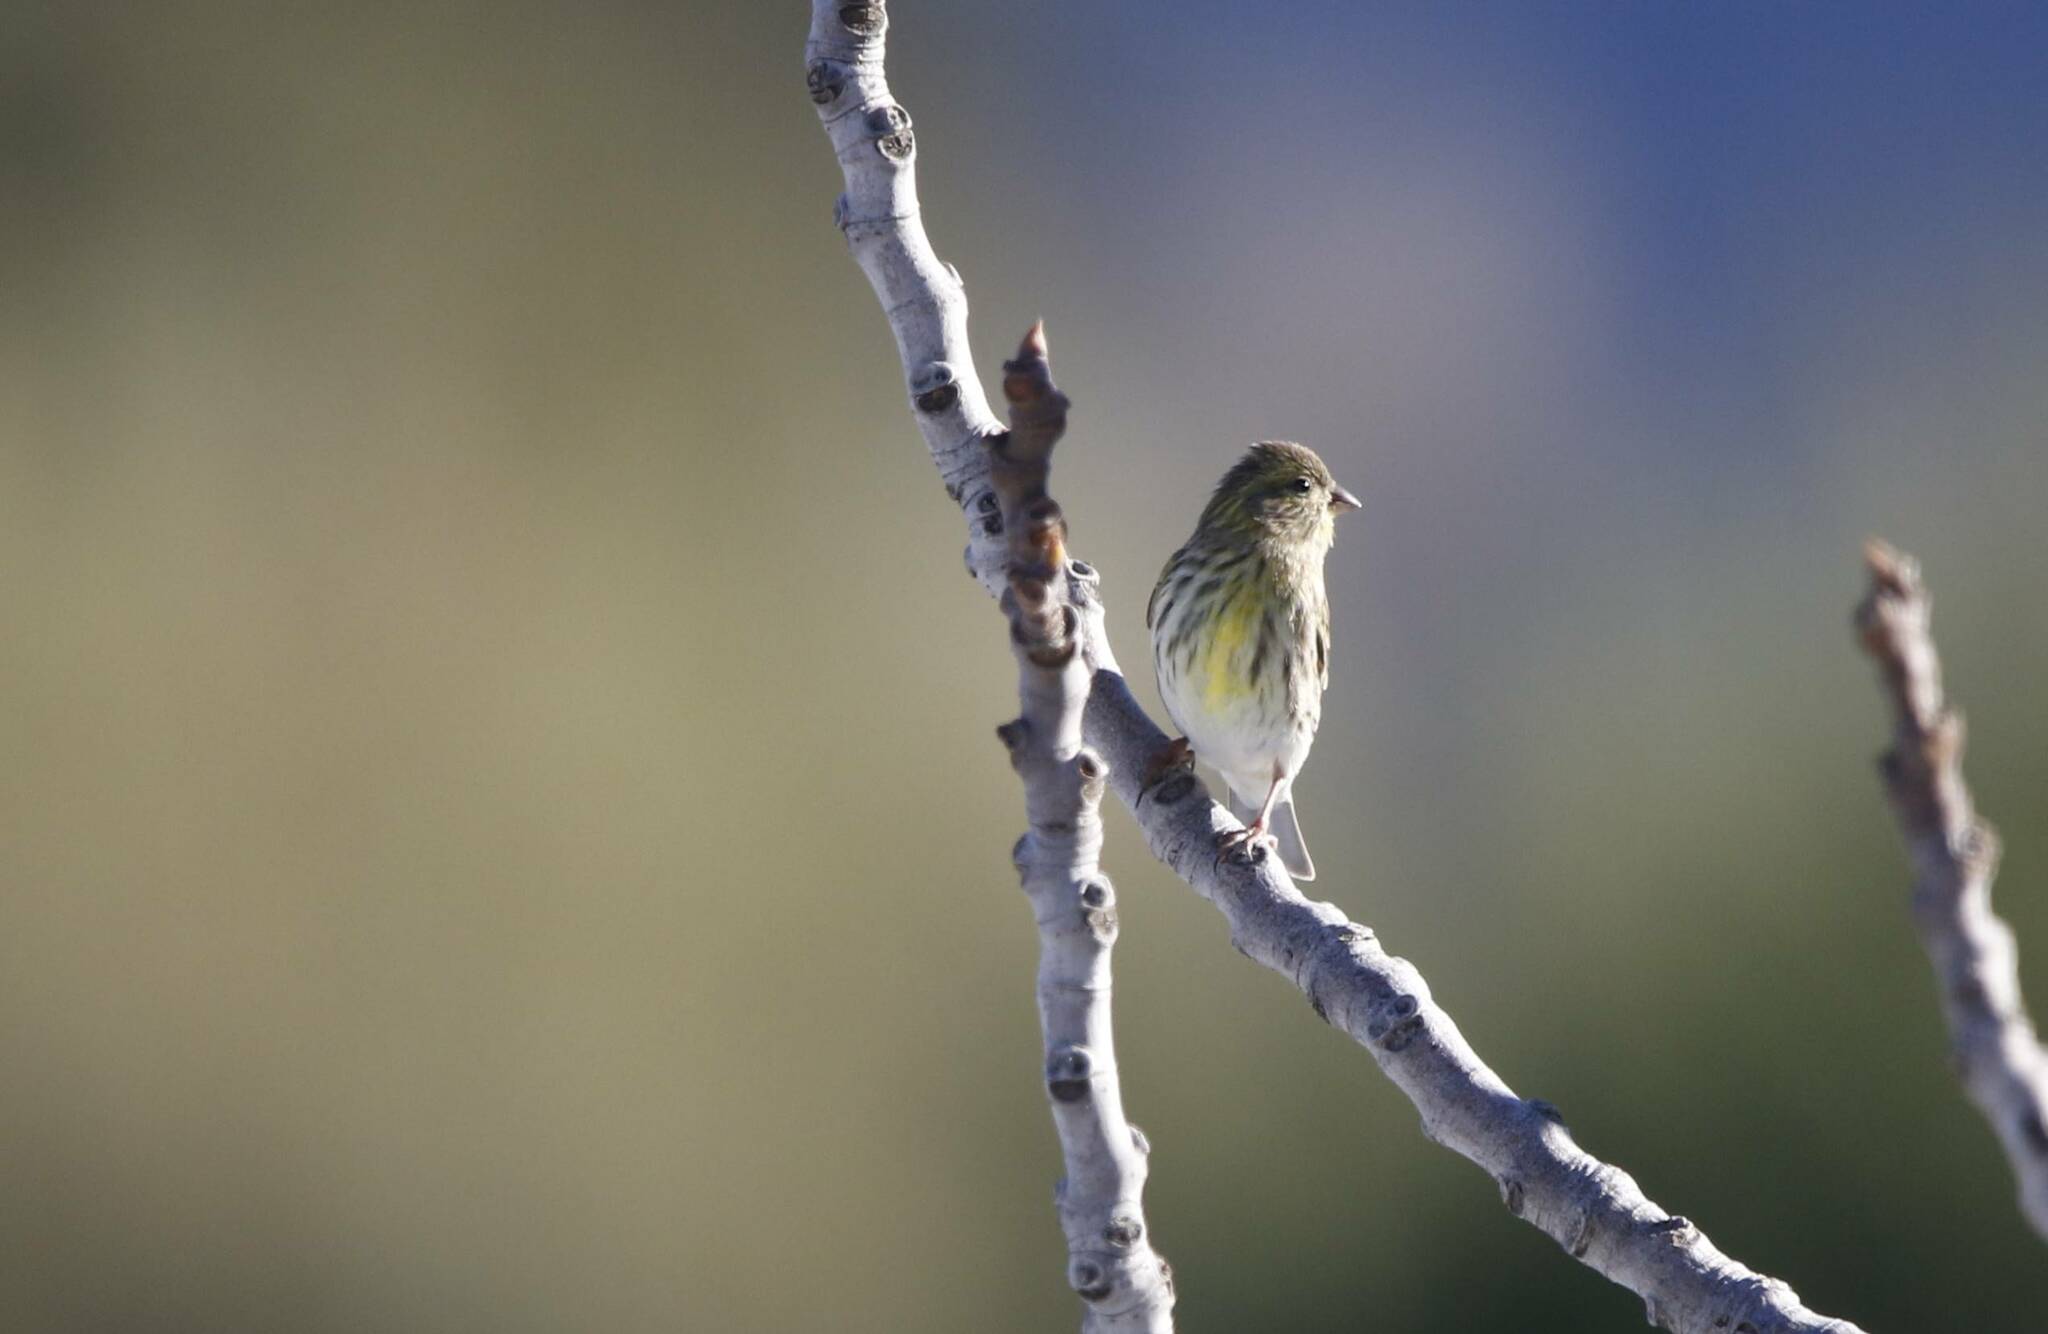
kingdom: Animalia
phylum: Chordata
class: Aves
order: Passeriformes
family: Fringillidae
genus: Serinus
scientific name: Serinus serinus
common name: European serin
